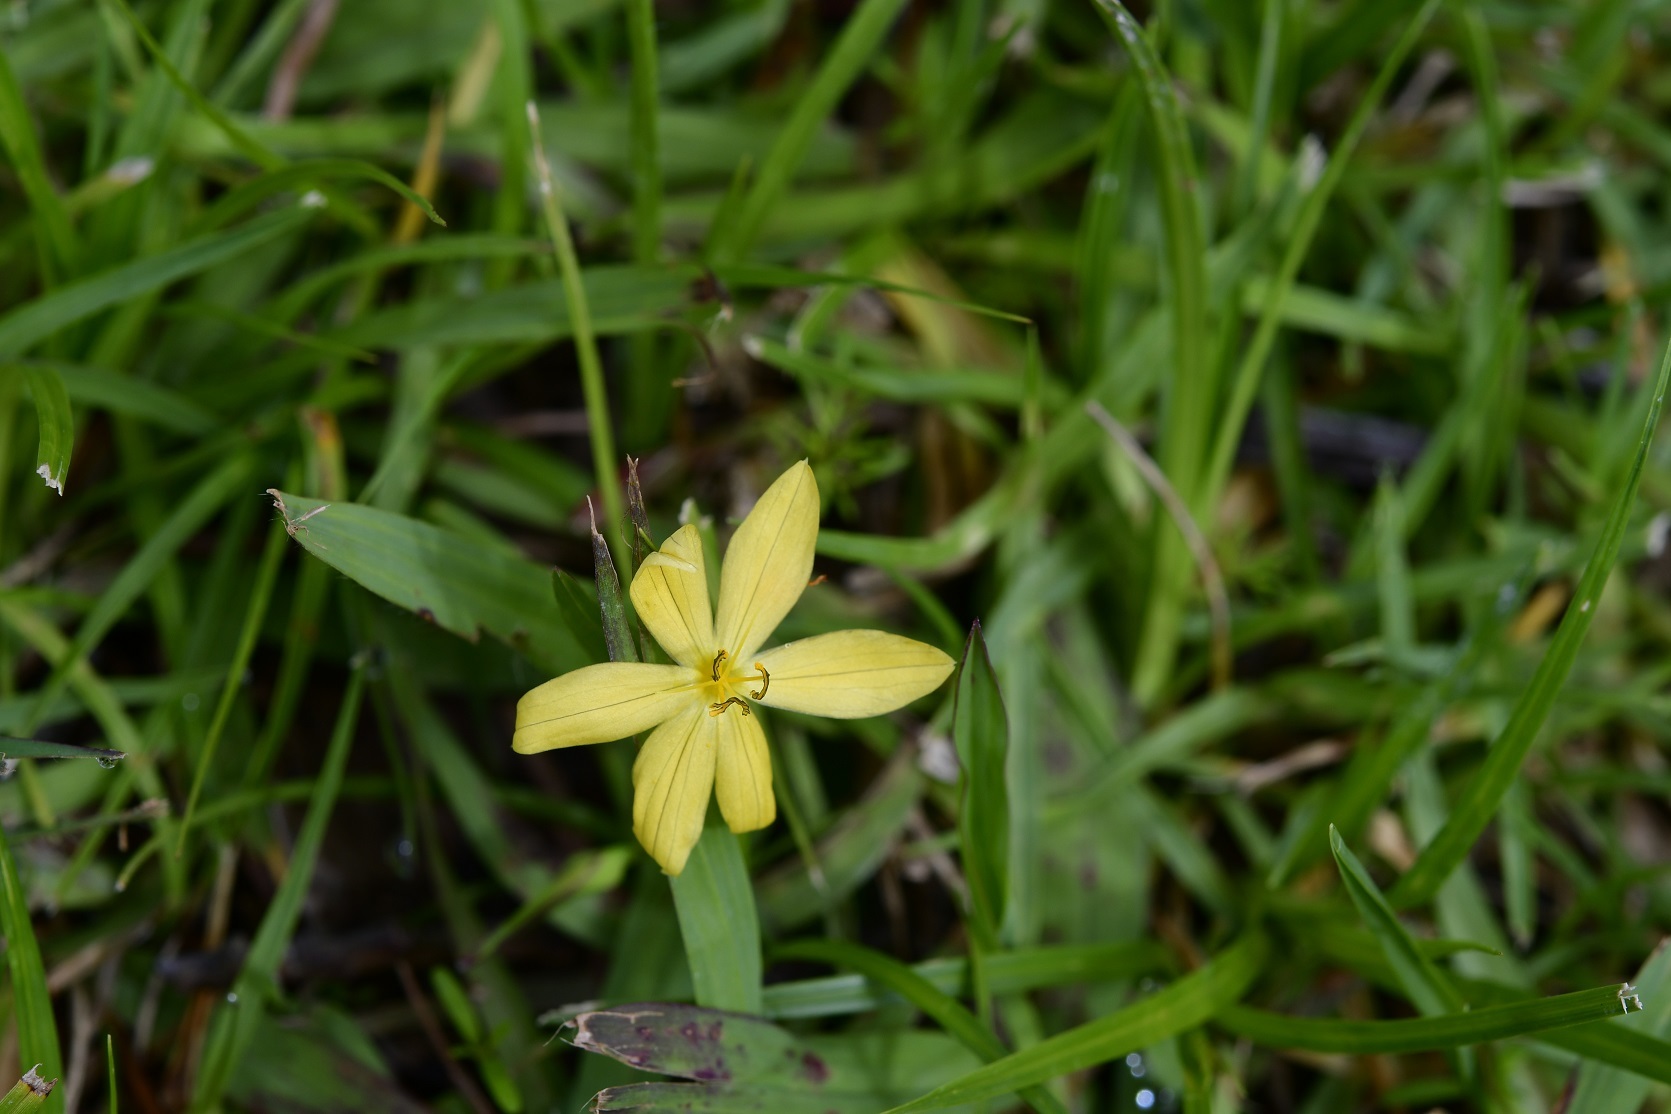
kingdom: Plantae
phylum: Tracheophyta
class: Liliopsida
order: Asparagales
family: Iridaceae
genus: Sisyrinchium
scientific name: Sisyrinchium tenuifolium
